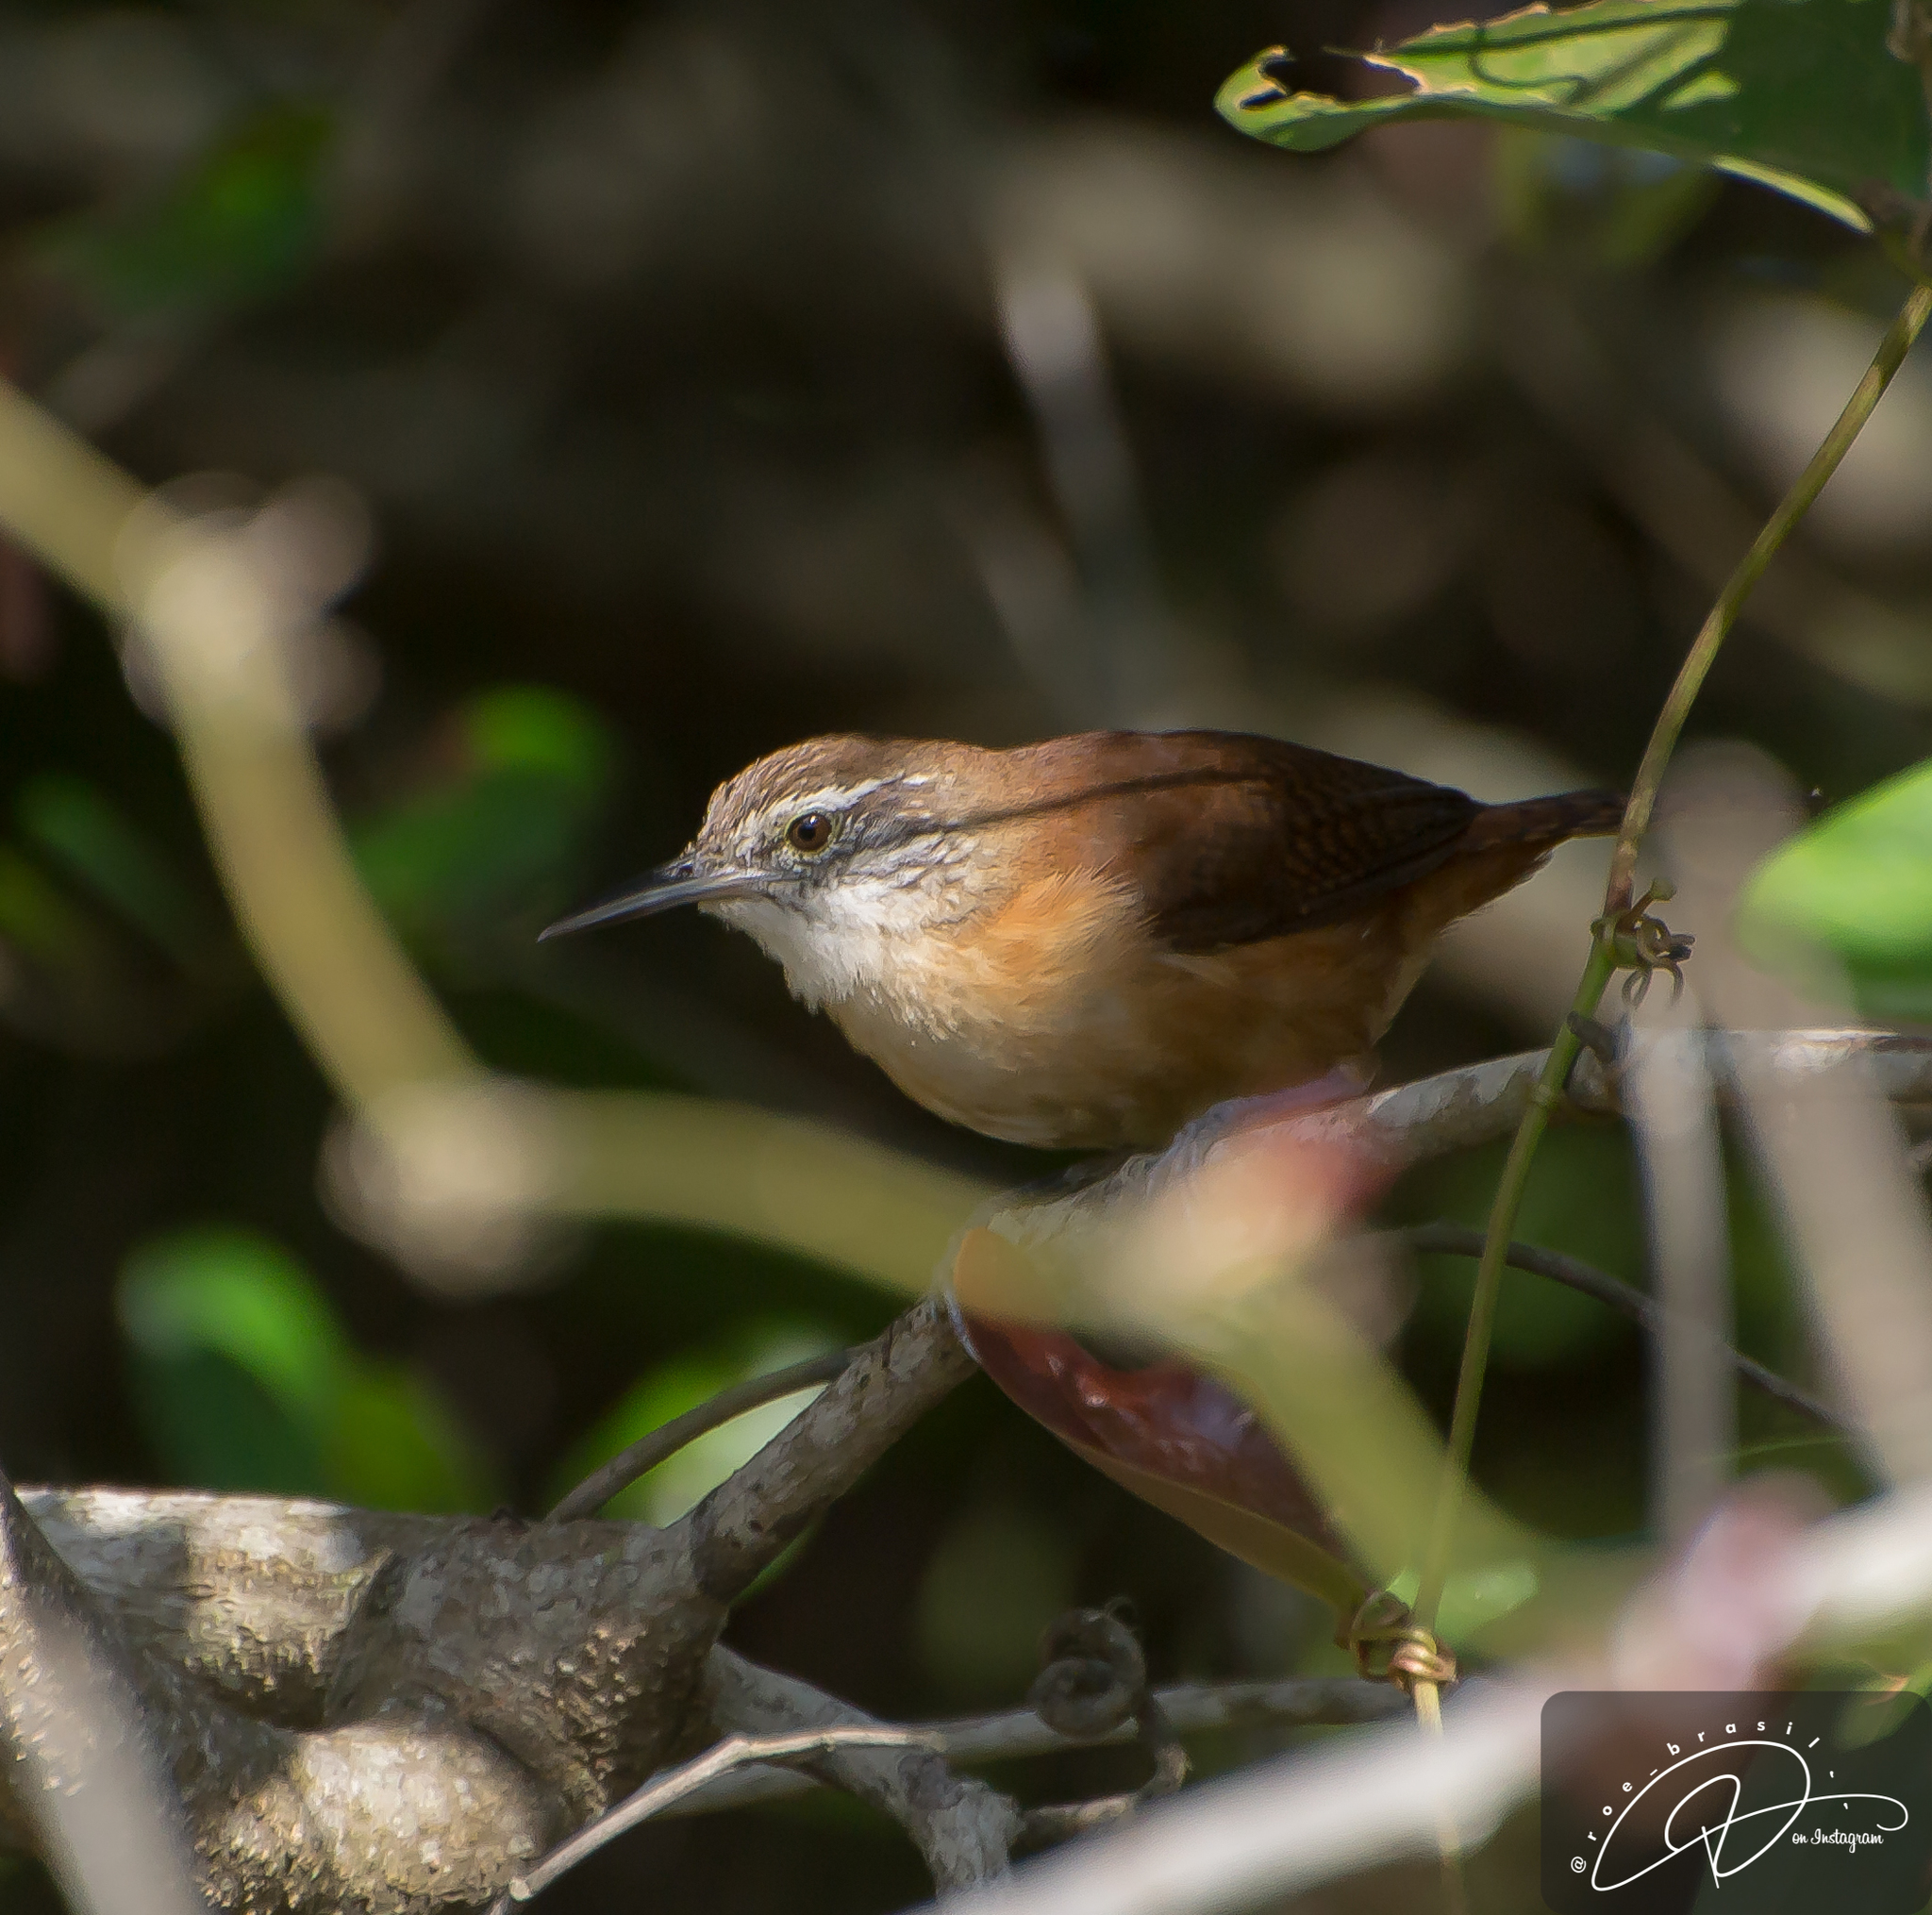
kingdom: Animalia
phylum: Chordata
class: Aves
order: Passeriformes
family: Troglodytidae
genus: Cantorchilus
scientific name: Cantorchilus longirostris
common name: Long-billed wren
